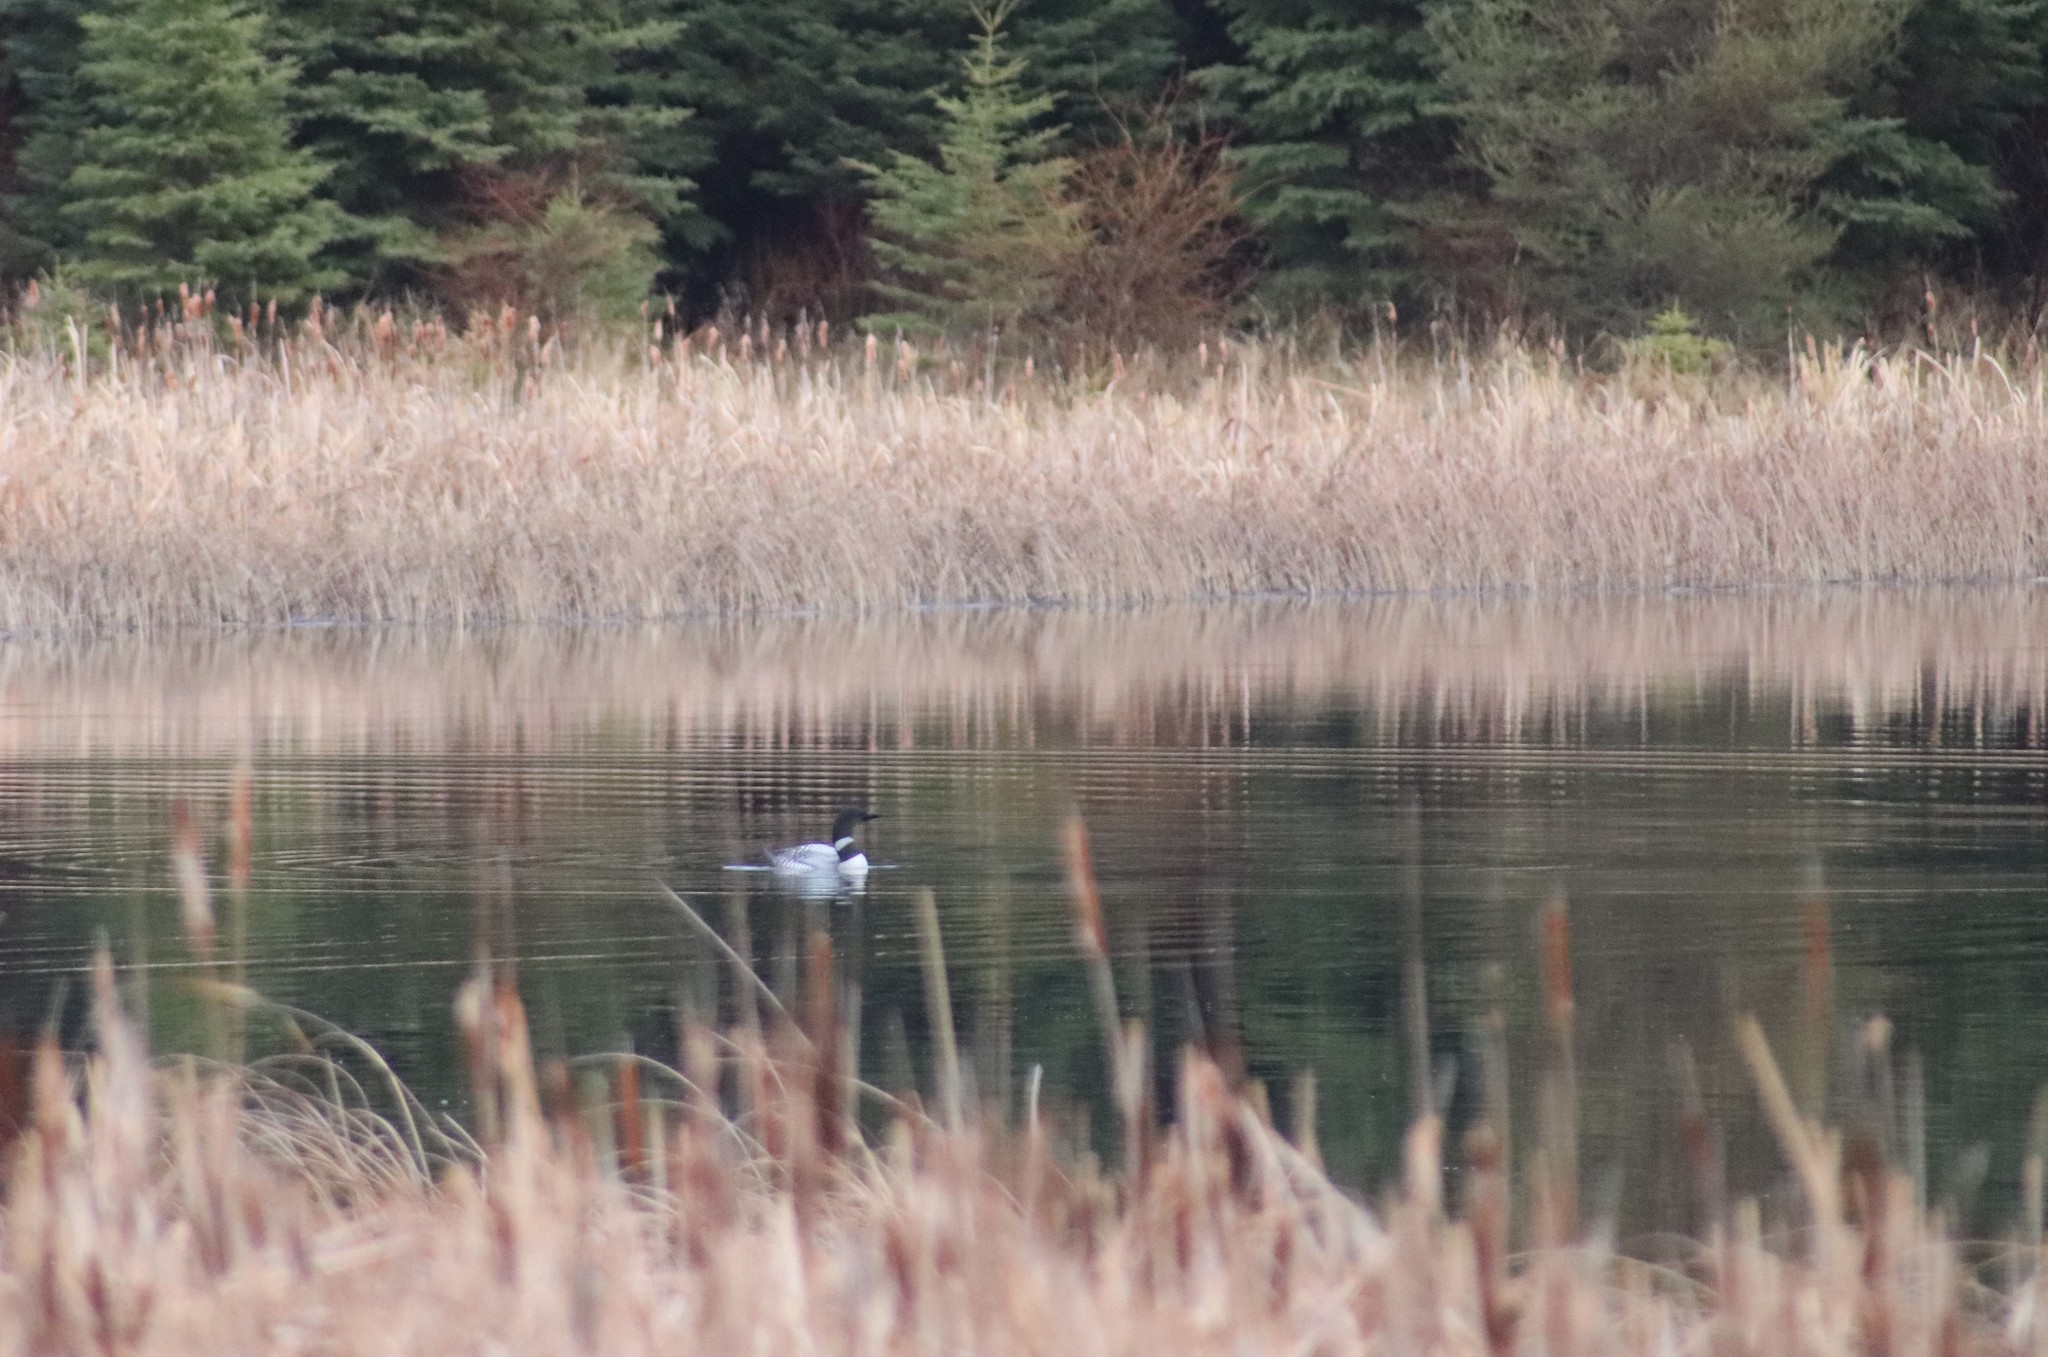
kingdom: Animalia
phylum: Chordata
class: Aves
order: Gaviiformes
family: Gaviidae
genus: Gavia
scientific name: Gavia immer
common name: Common loon
